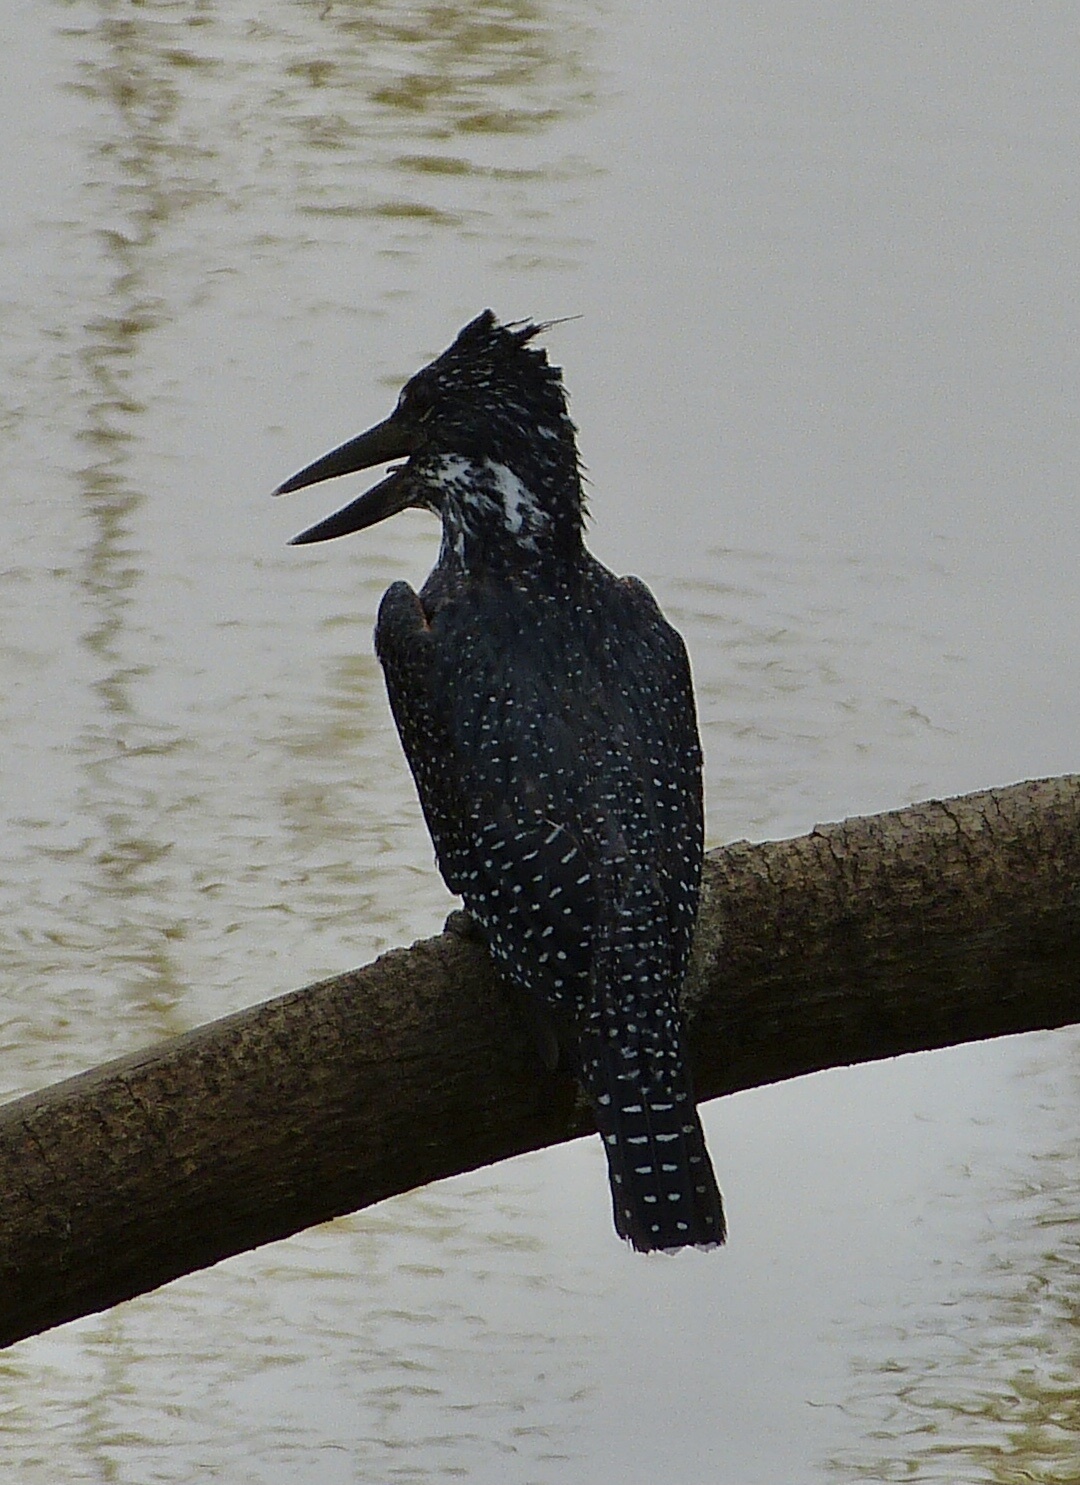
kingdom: Animalia
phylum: Chordata
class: Aves
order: Coraciiformes
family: Alcedinidae
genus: Megaceryle
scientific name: Megaceryle maxima
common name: Giant kingfisher
